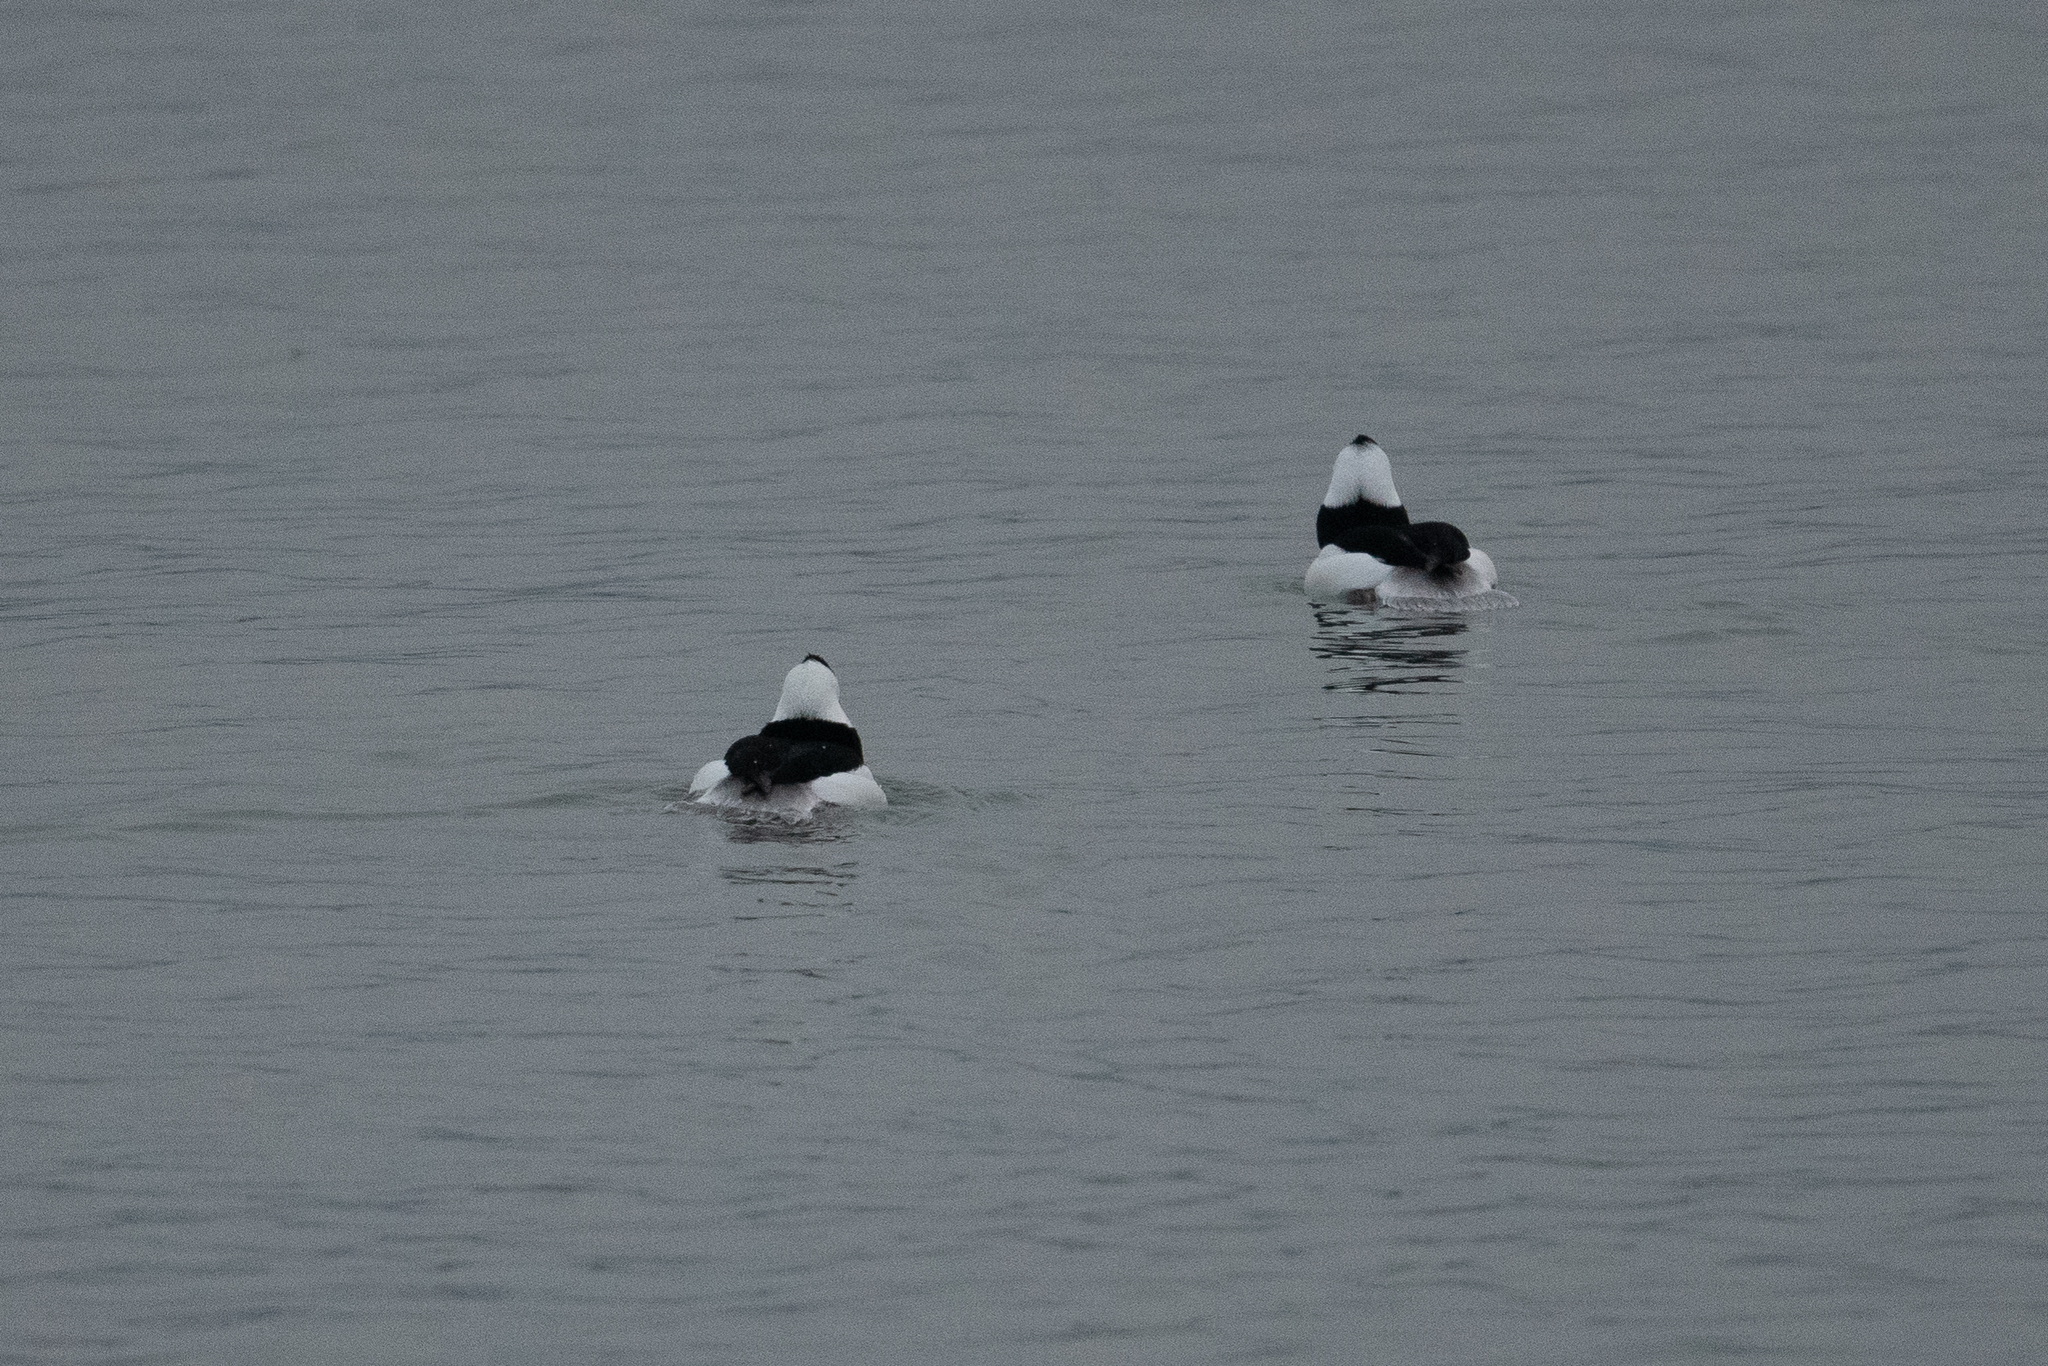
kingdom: Animalia
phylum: Chordata
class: Aves
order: Anseriformes
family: Anatidae
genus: Bucephala
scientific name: Bucephala albeola
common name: Bufflehead
